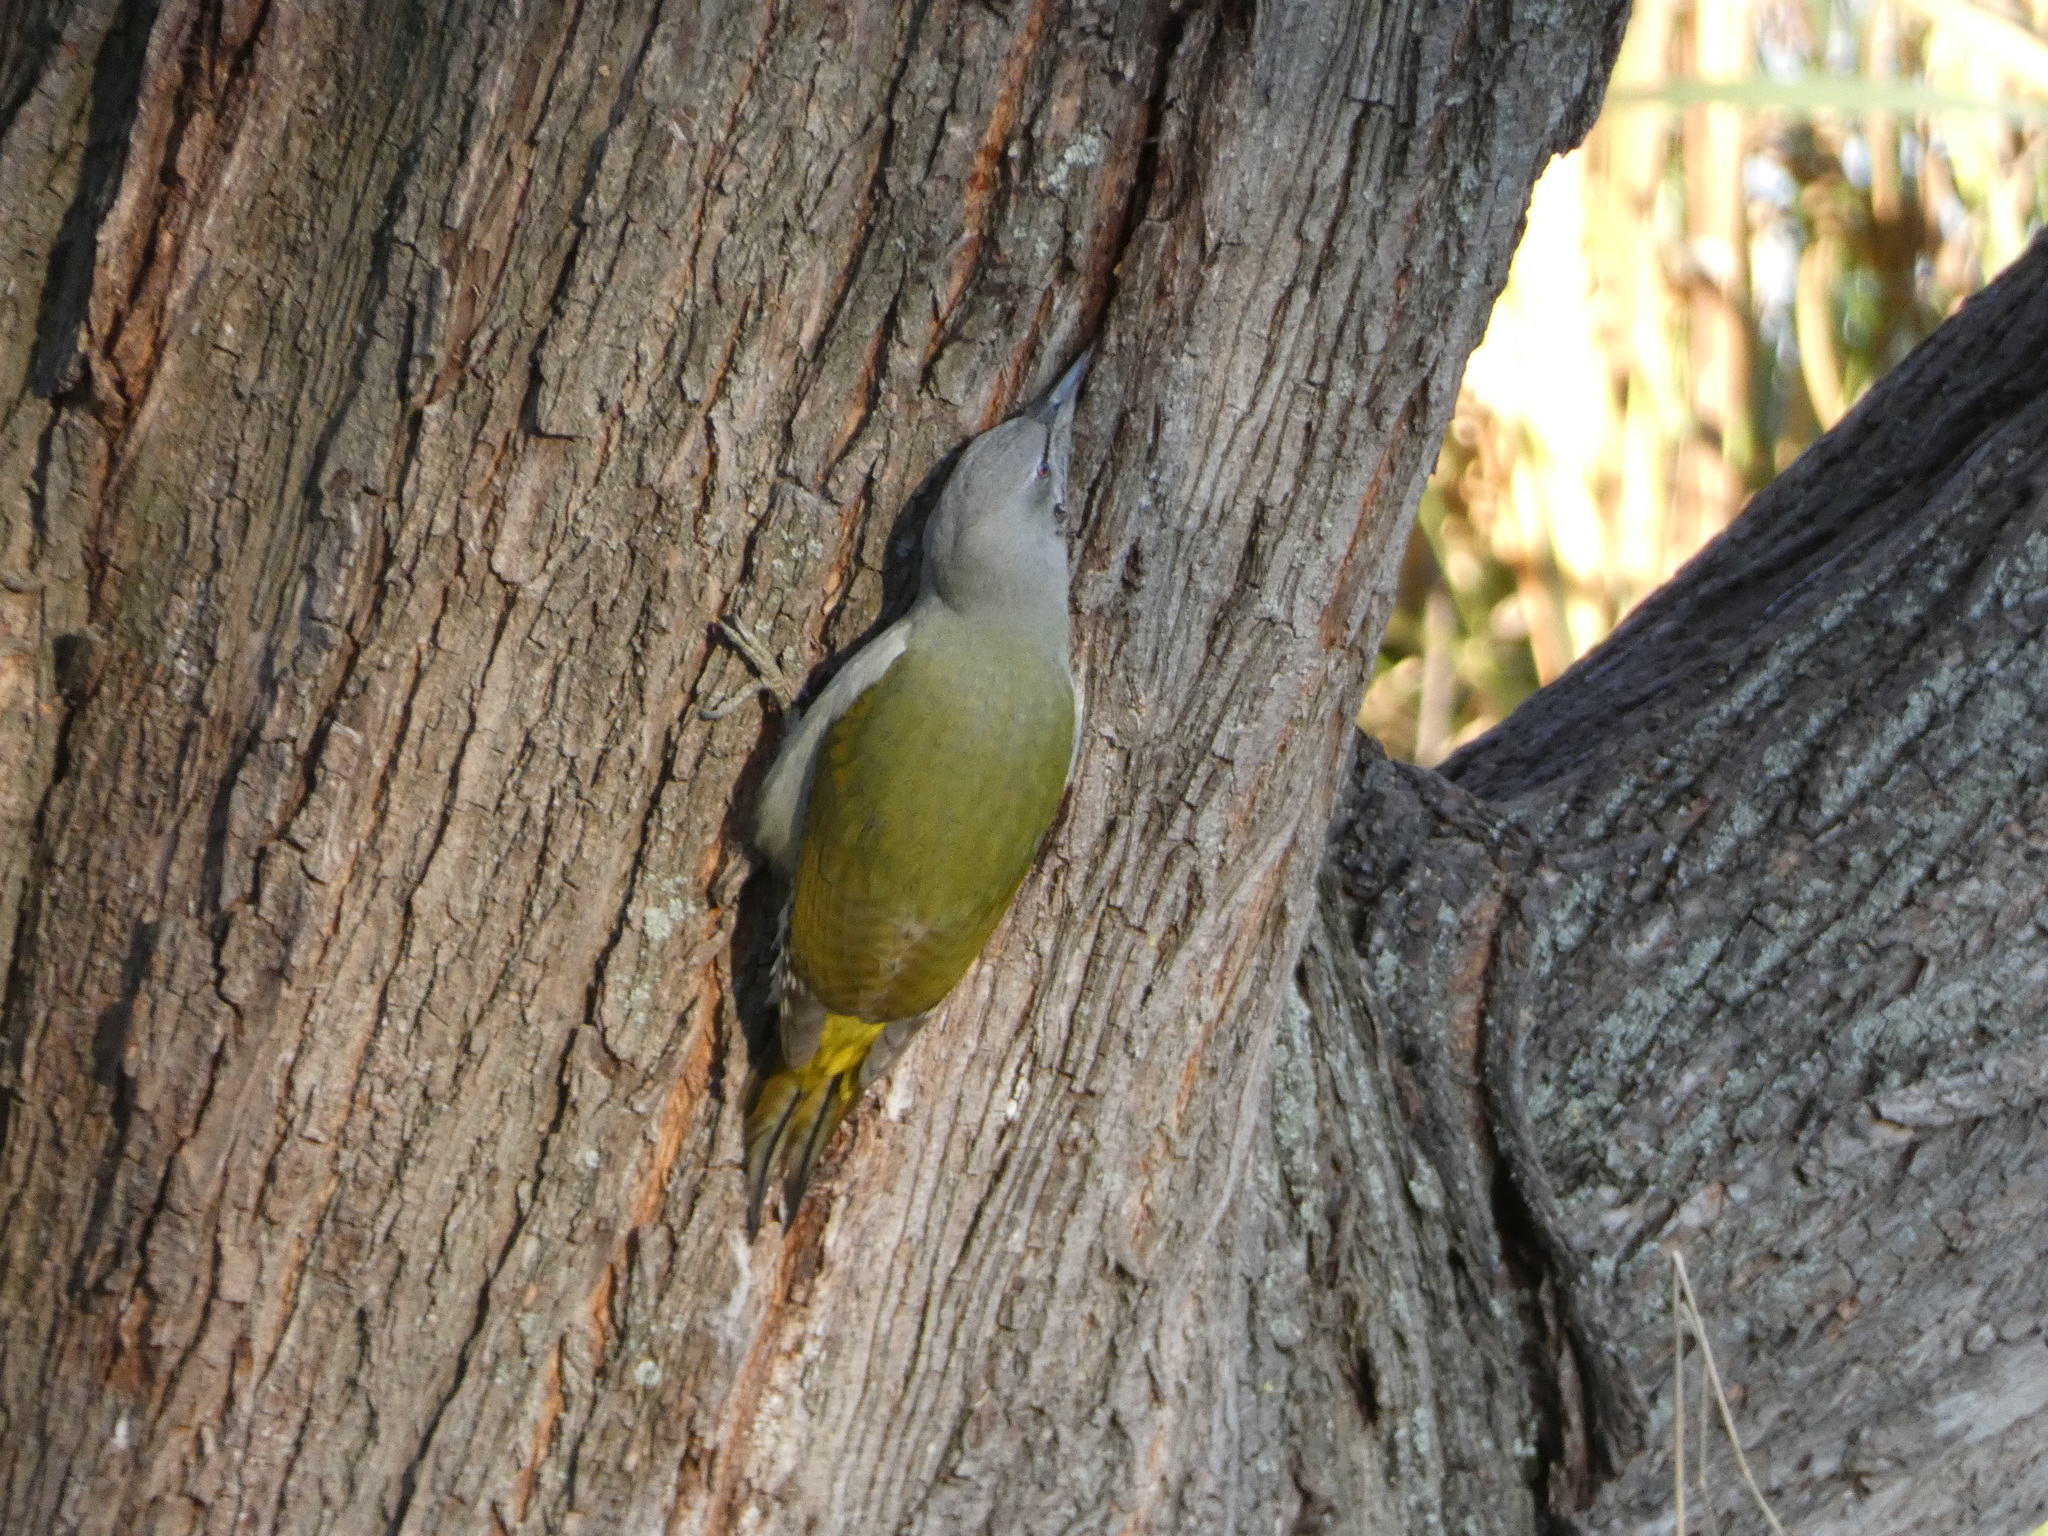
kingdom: Animalia
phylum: Chordata
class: Aves
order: Piciformes
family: Picidae
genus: Picus
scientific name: Picus canus
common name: Grey-headed woodpecker
